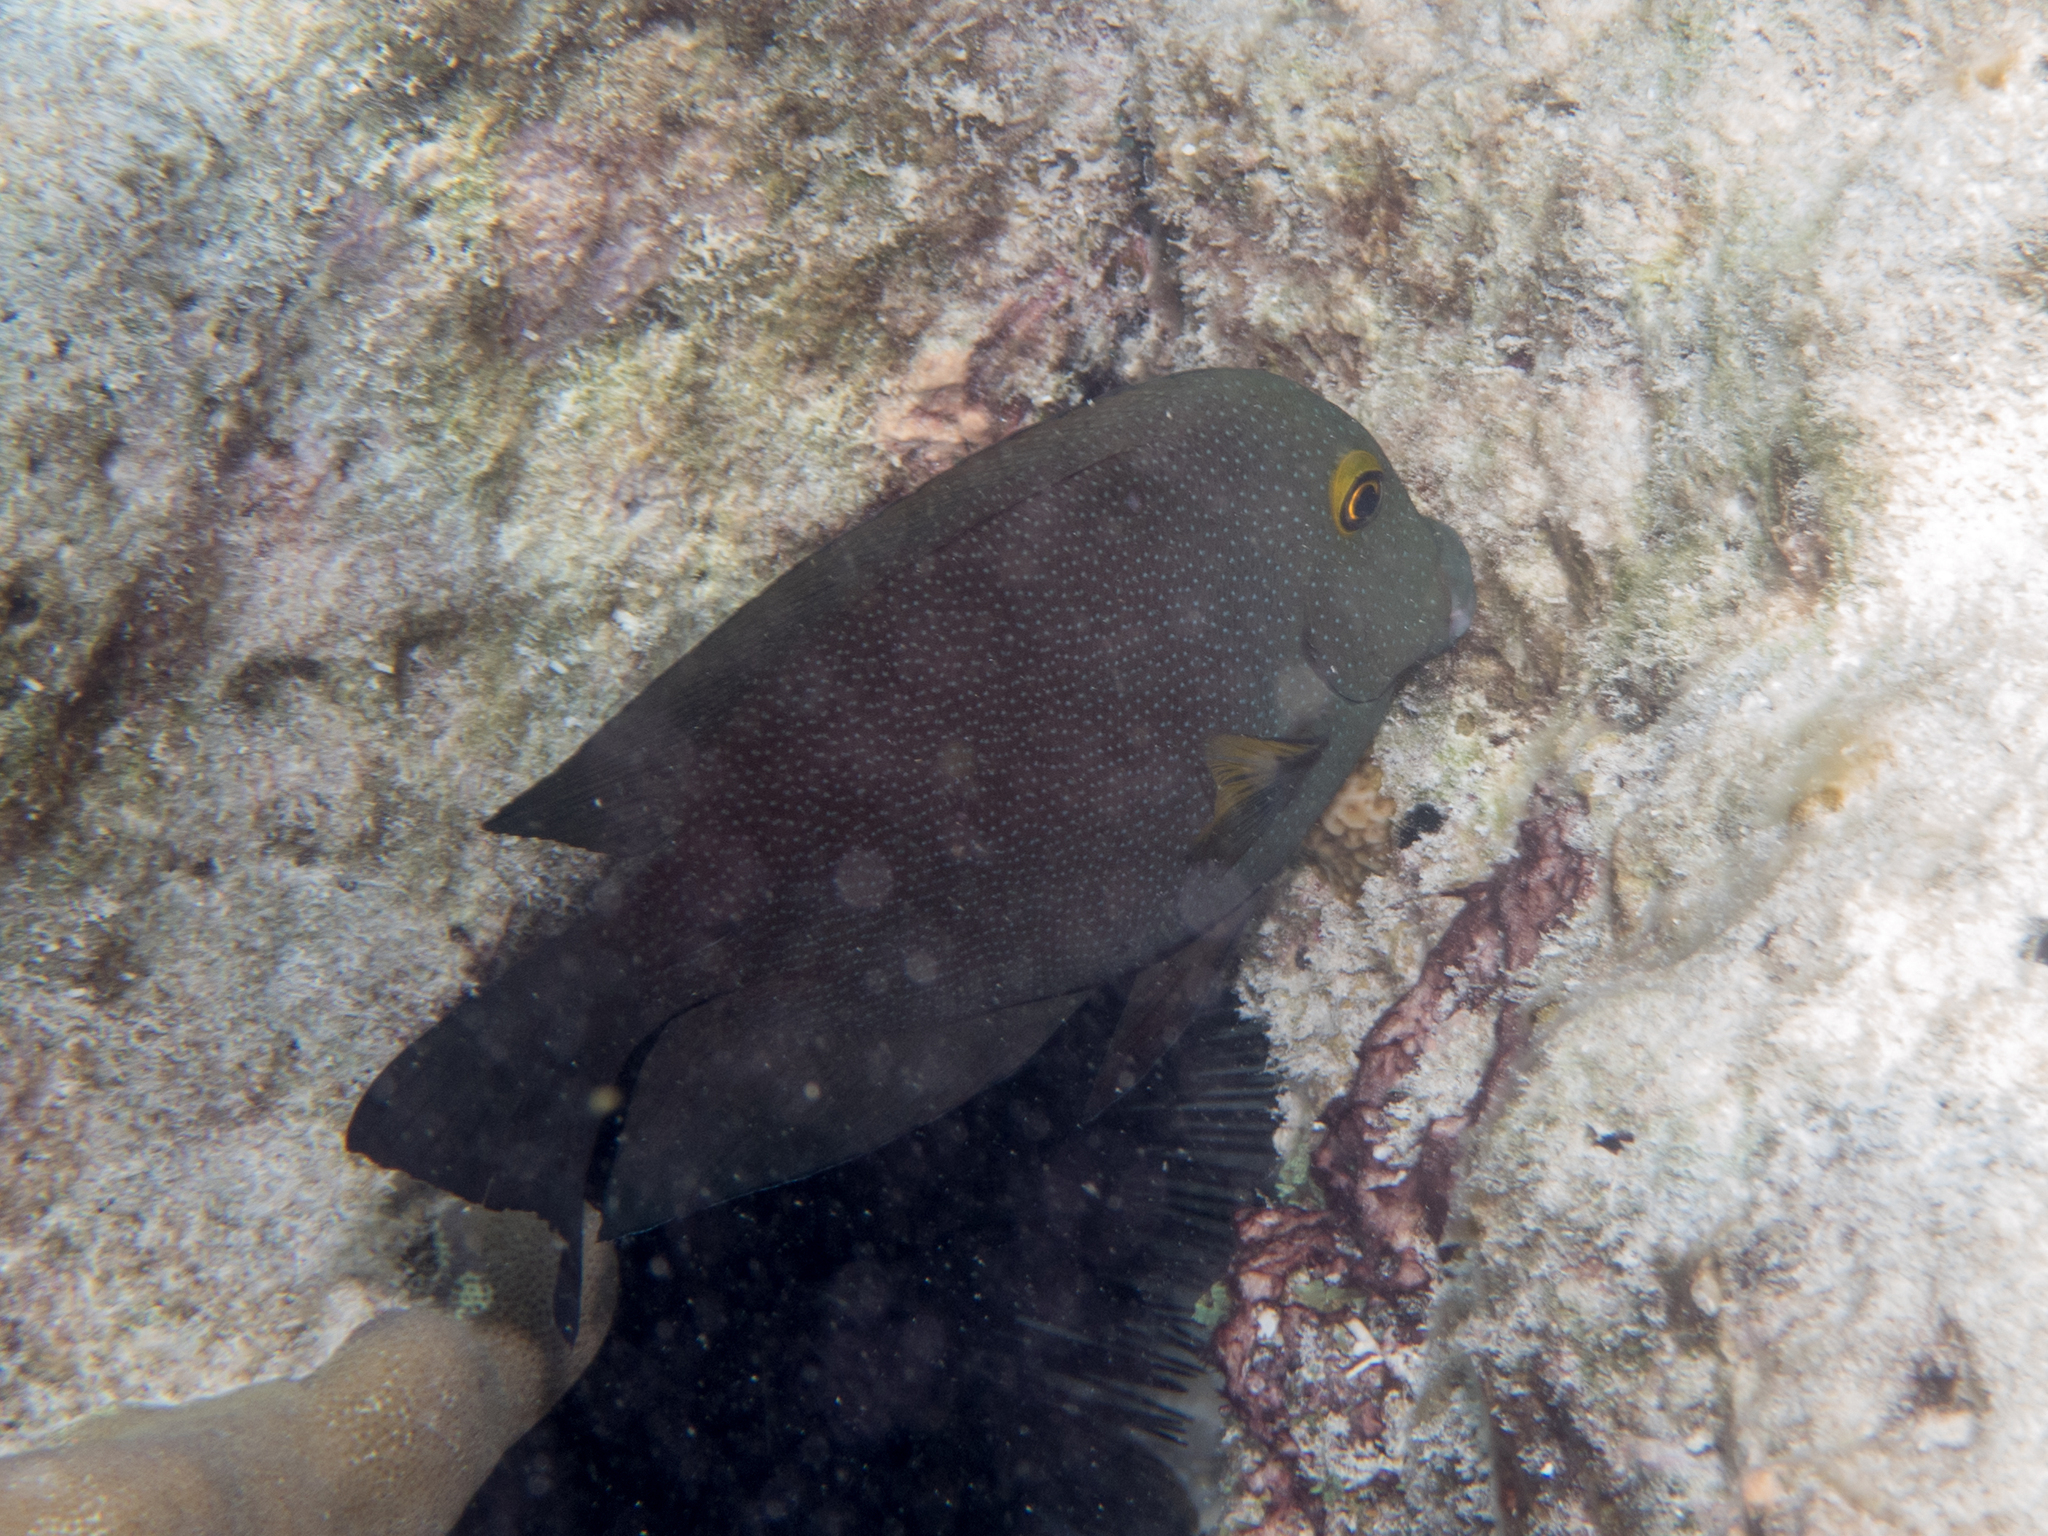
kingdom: Animalia
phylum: Chordata
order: Perciformes
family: Acanthuridae
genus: Ctenochaetus
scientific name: Ctenochaetus truncatus
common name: Indian gold-ring bristle-tooth
